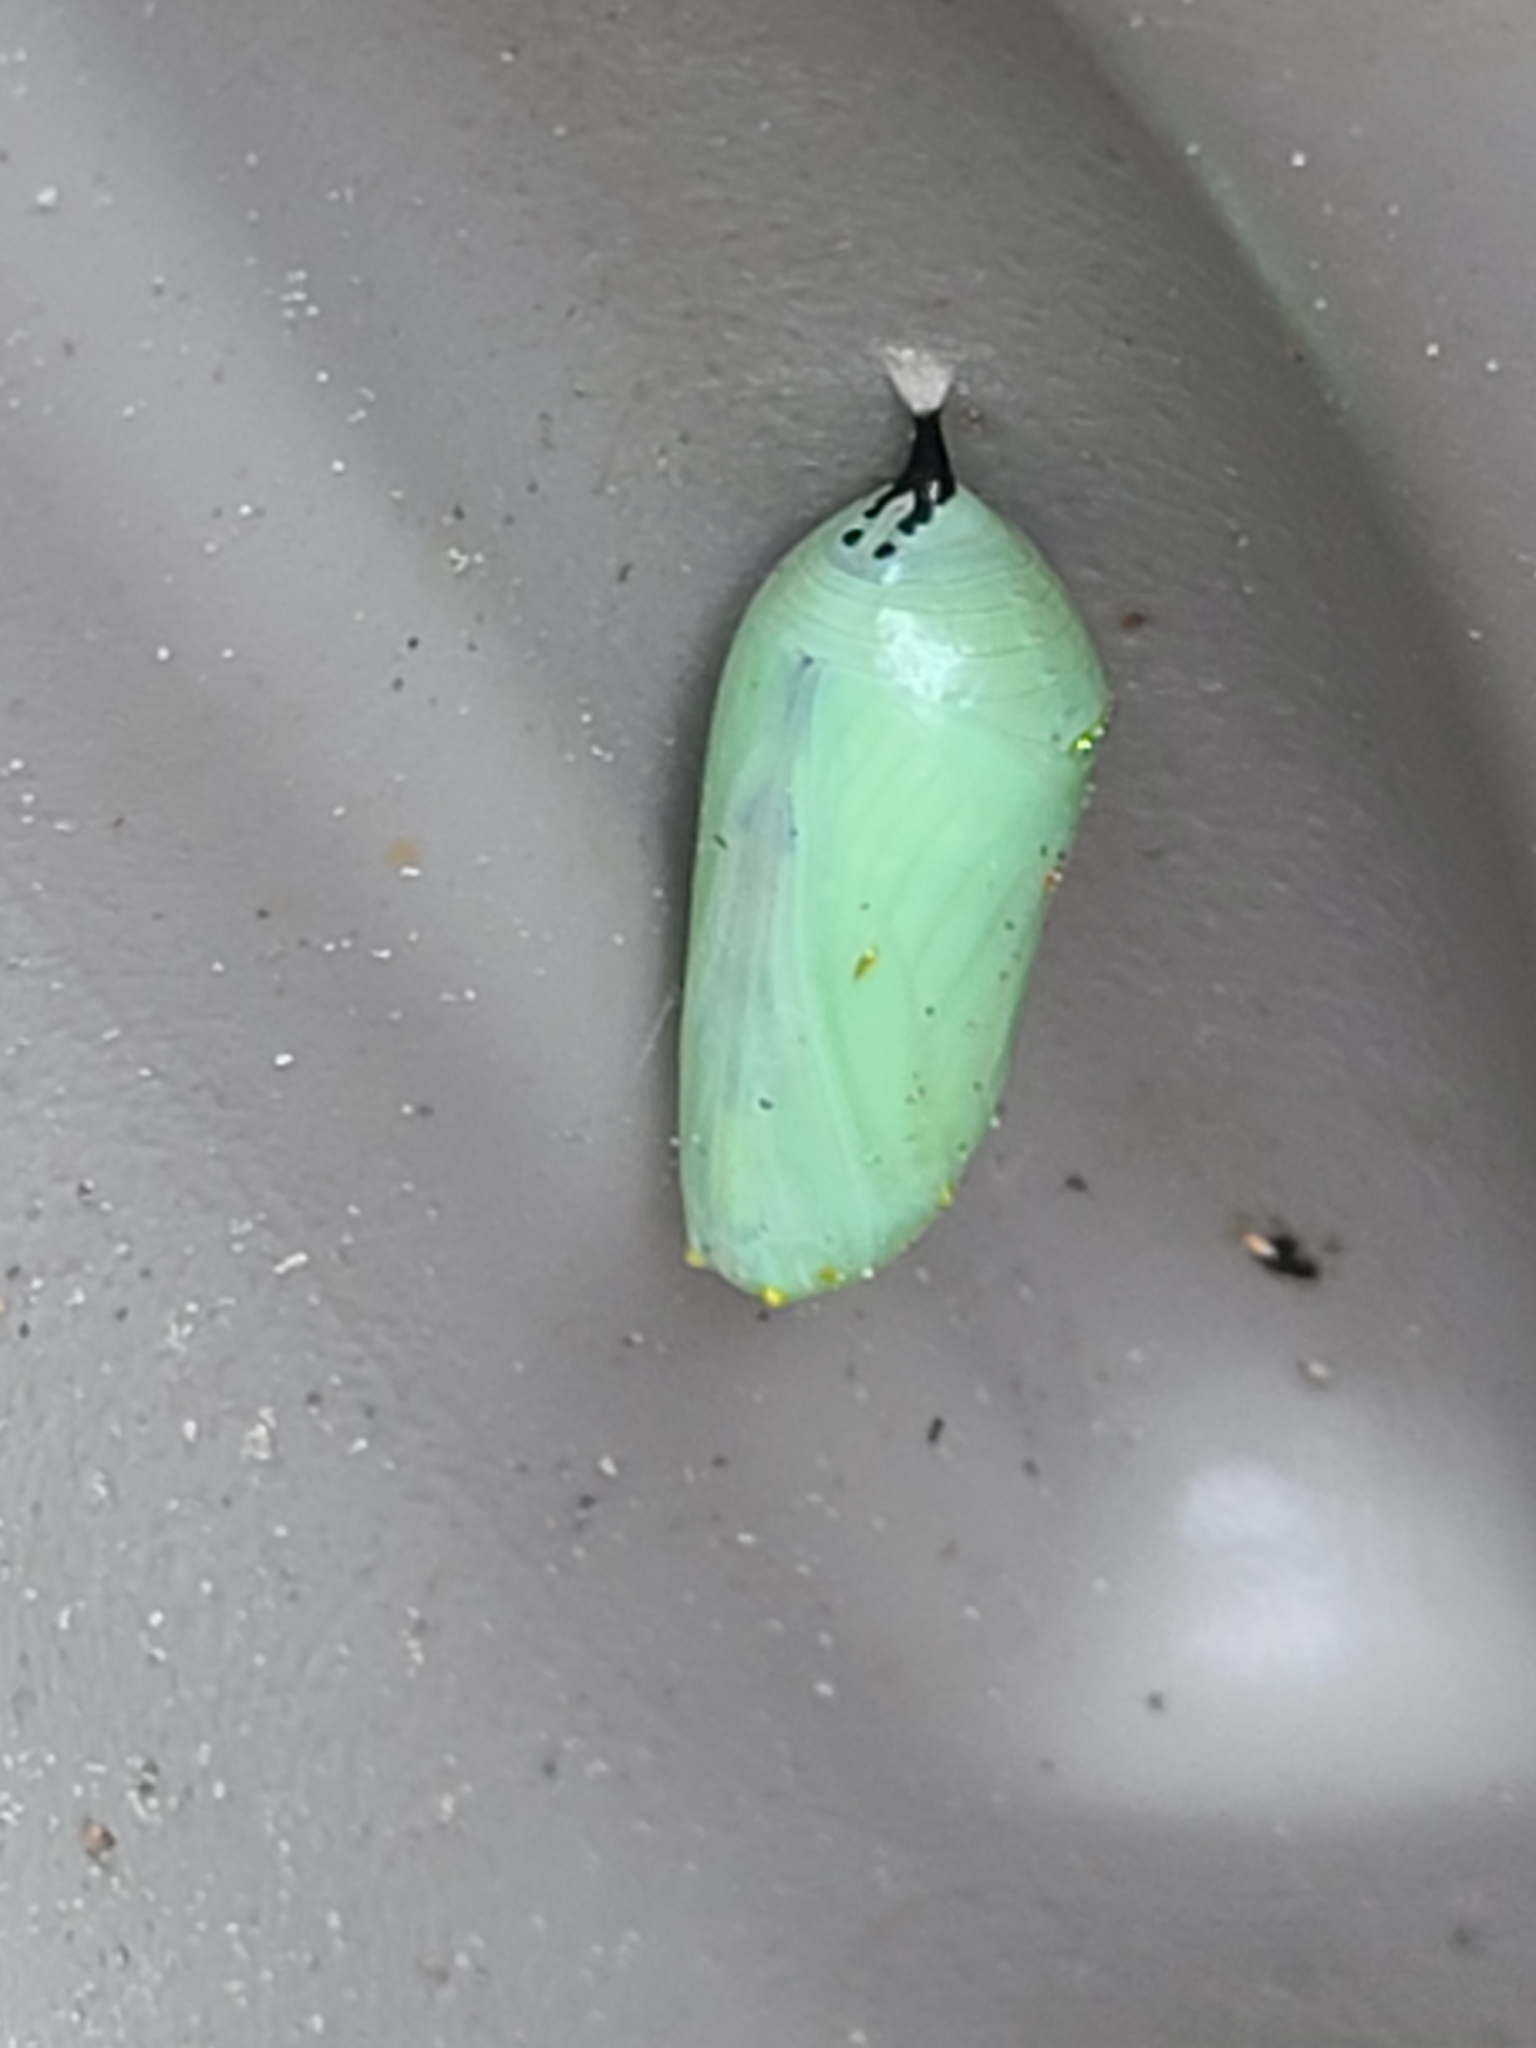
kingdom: Animalia
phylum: Arthropoda
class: Insecta
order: Lepidoptera
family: Nymphalidae
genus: Danaus
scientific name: Danaus plexippus
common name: Monarch
